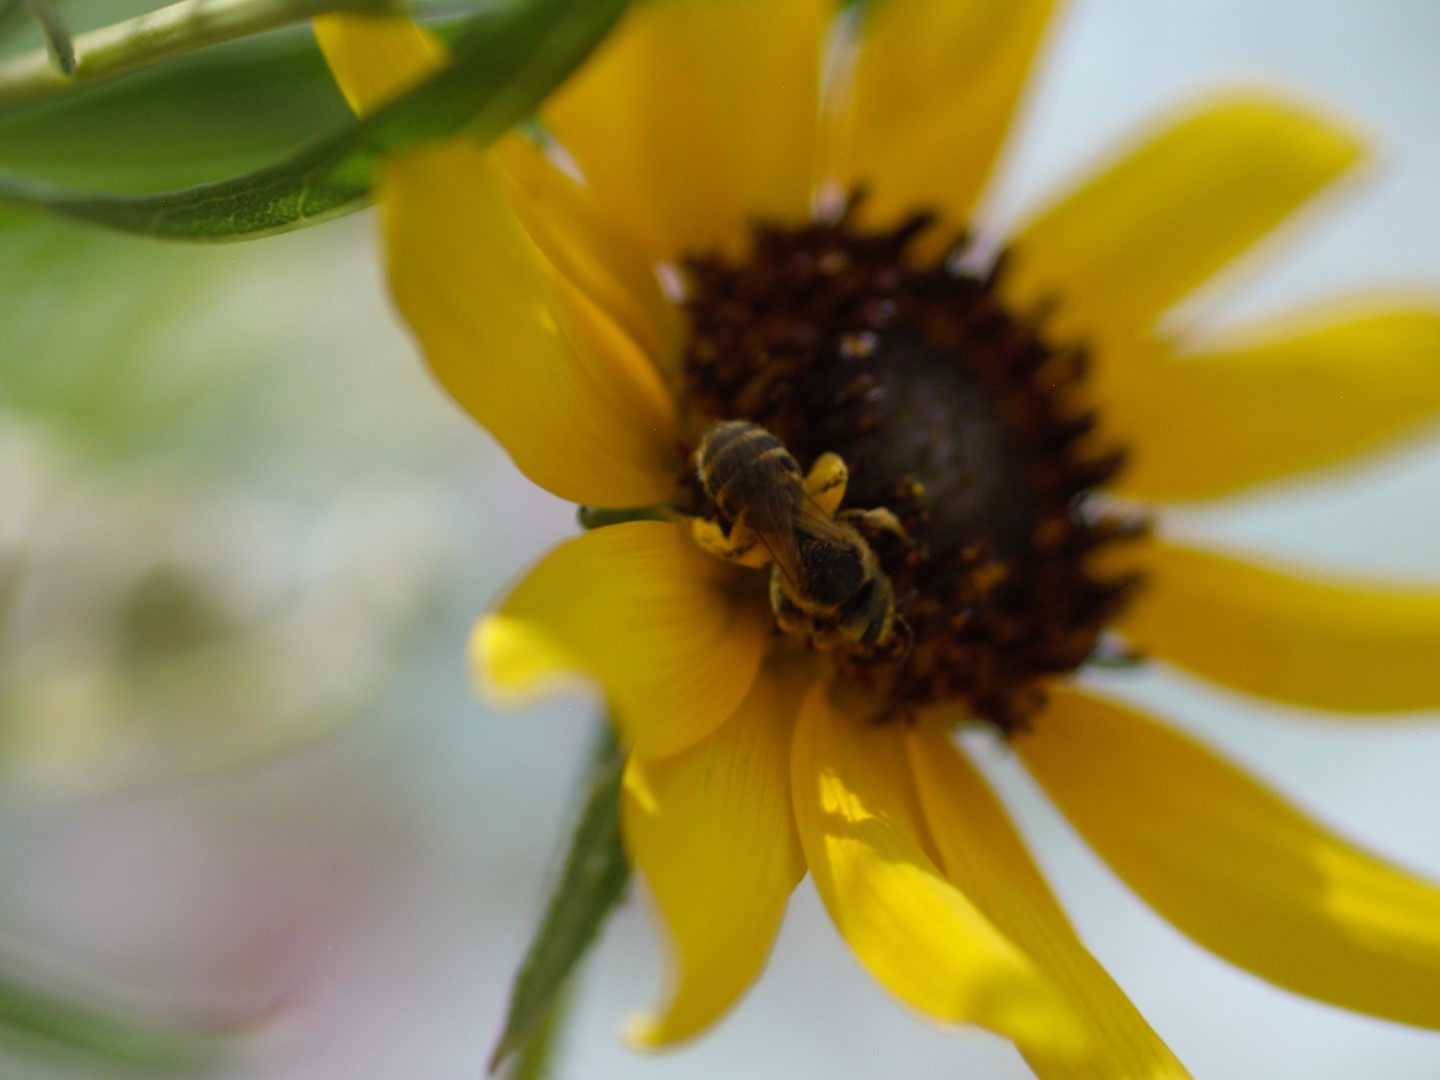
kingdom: Animalia
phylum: Arthropoda
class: Insecta
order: Hymenoptera
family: Halictidae
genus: Halictus
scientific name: Halictus ligatus
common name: Ligated furrow bee
